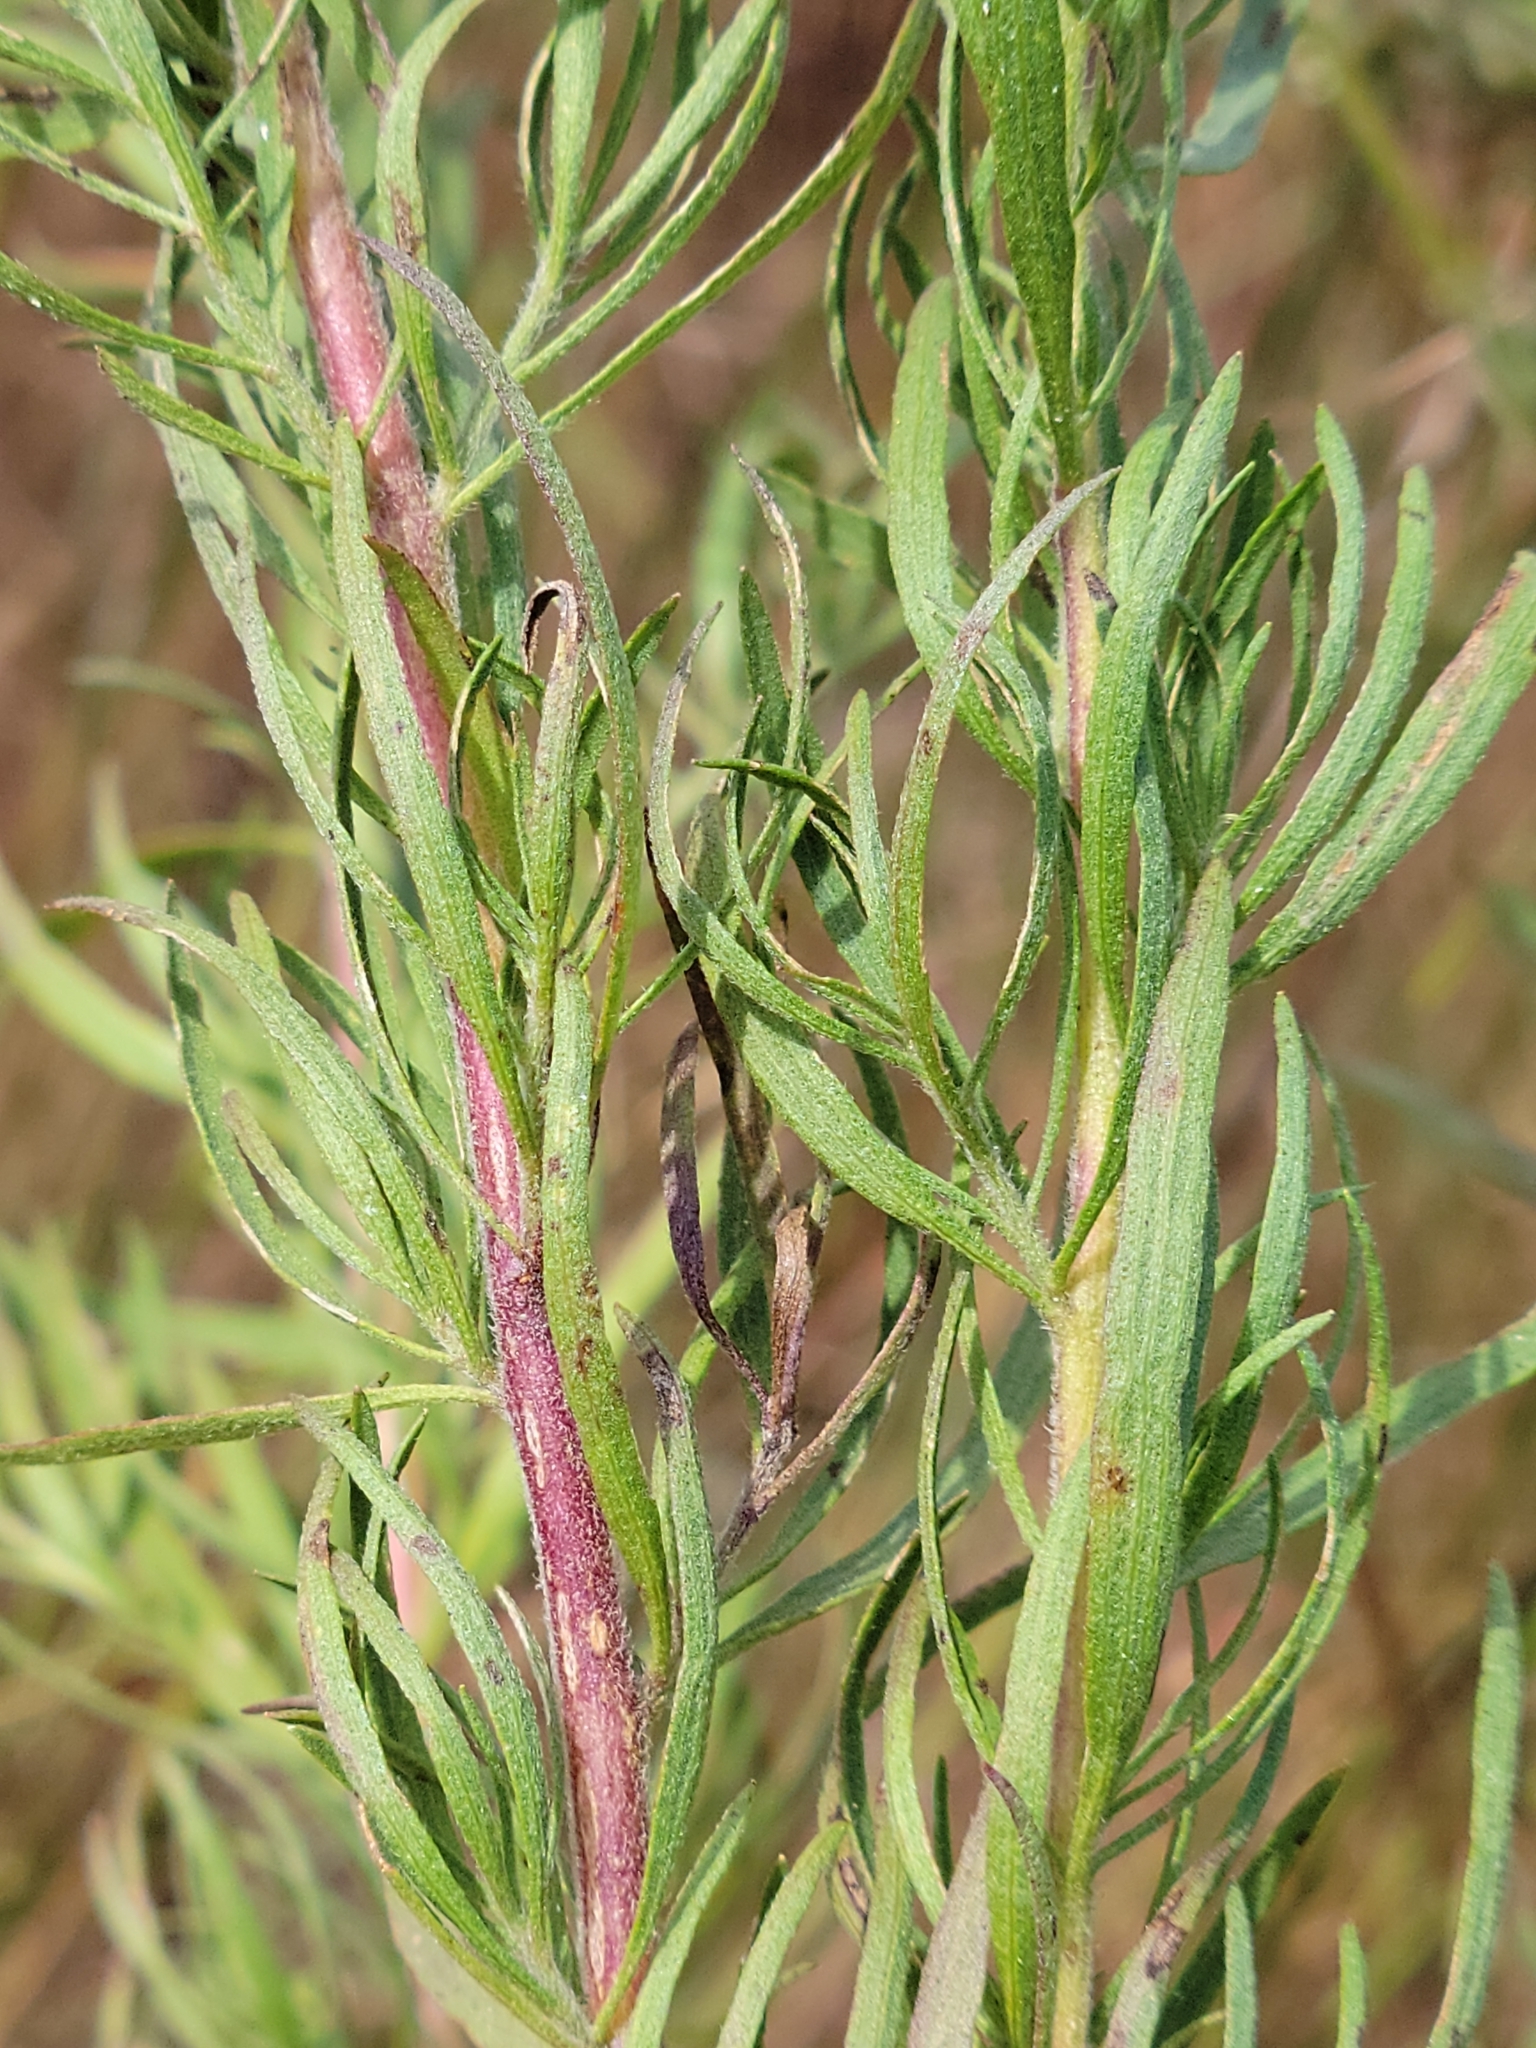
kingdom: Plantae
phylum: Tracheophyta
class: Magnoliopsida
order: Asterales
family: Asteraceae
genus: Eupatorium
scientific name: Eupatorium compositifolium
